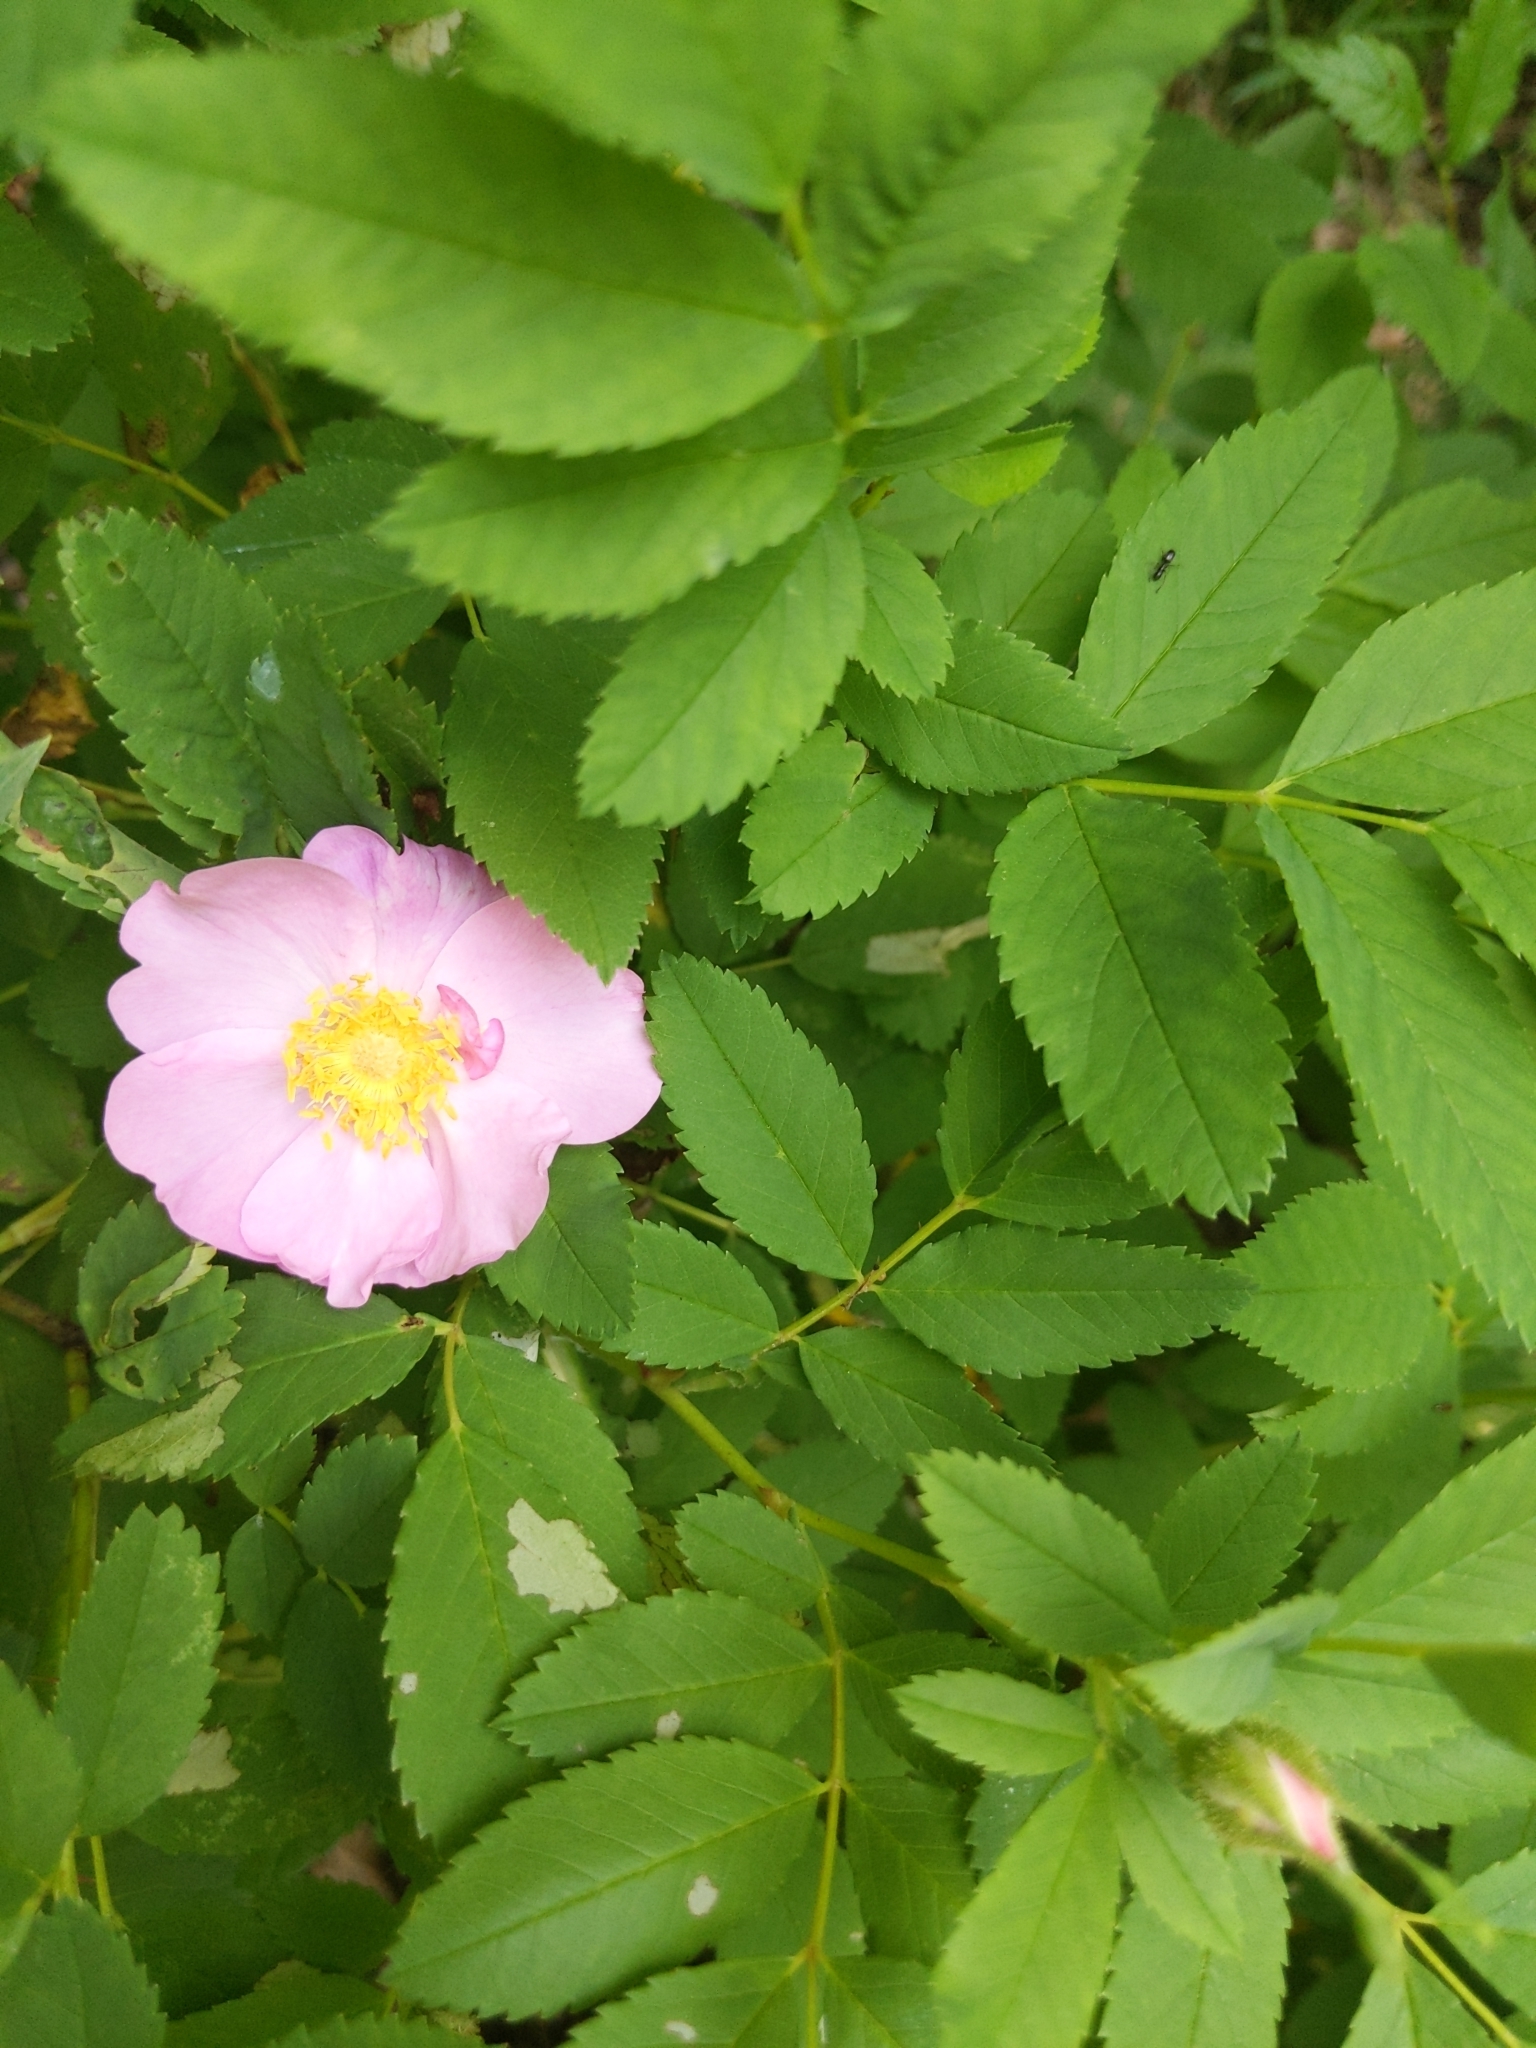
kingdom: Plantae
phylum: Tracheophyta
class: Magnoliopsida
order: Rosales
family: Rosaceae
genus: Rosa
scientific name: Rosa carolina
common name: Pasture rose
